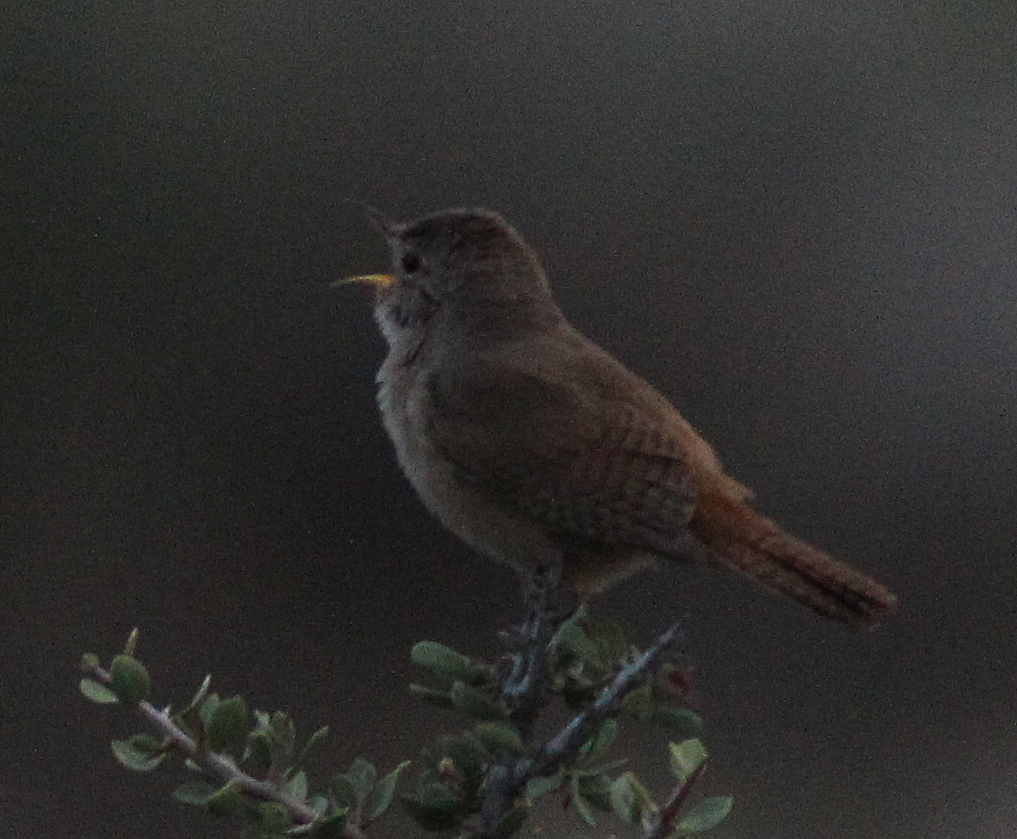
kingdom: Animalia
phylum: Chordata
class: Aves
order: Passeriformes
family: Troglodytidae
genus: Troglodytes
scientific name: Troglodytes aedon
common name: House wren
